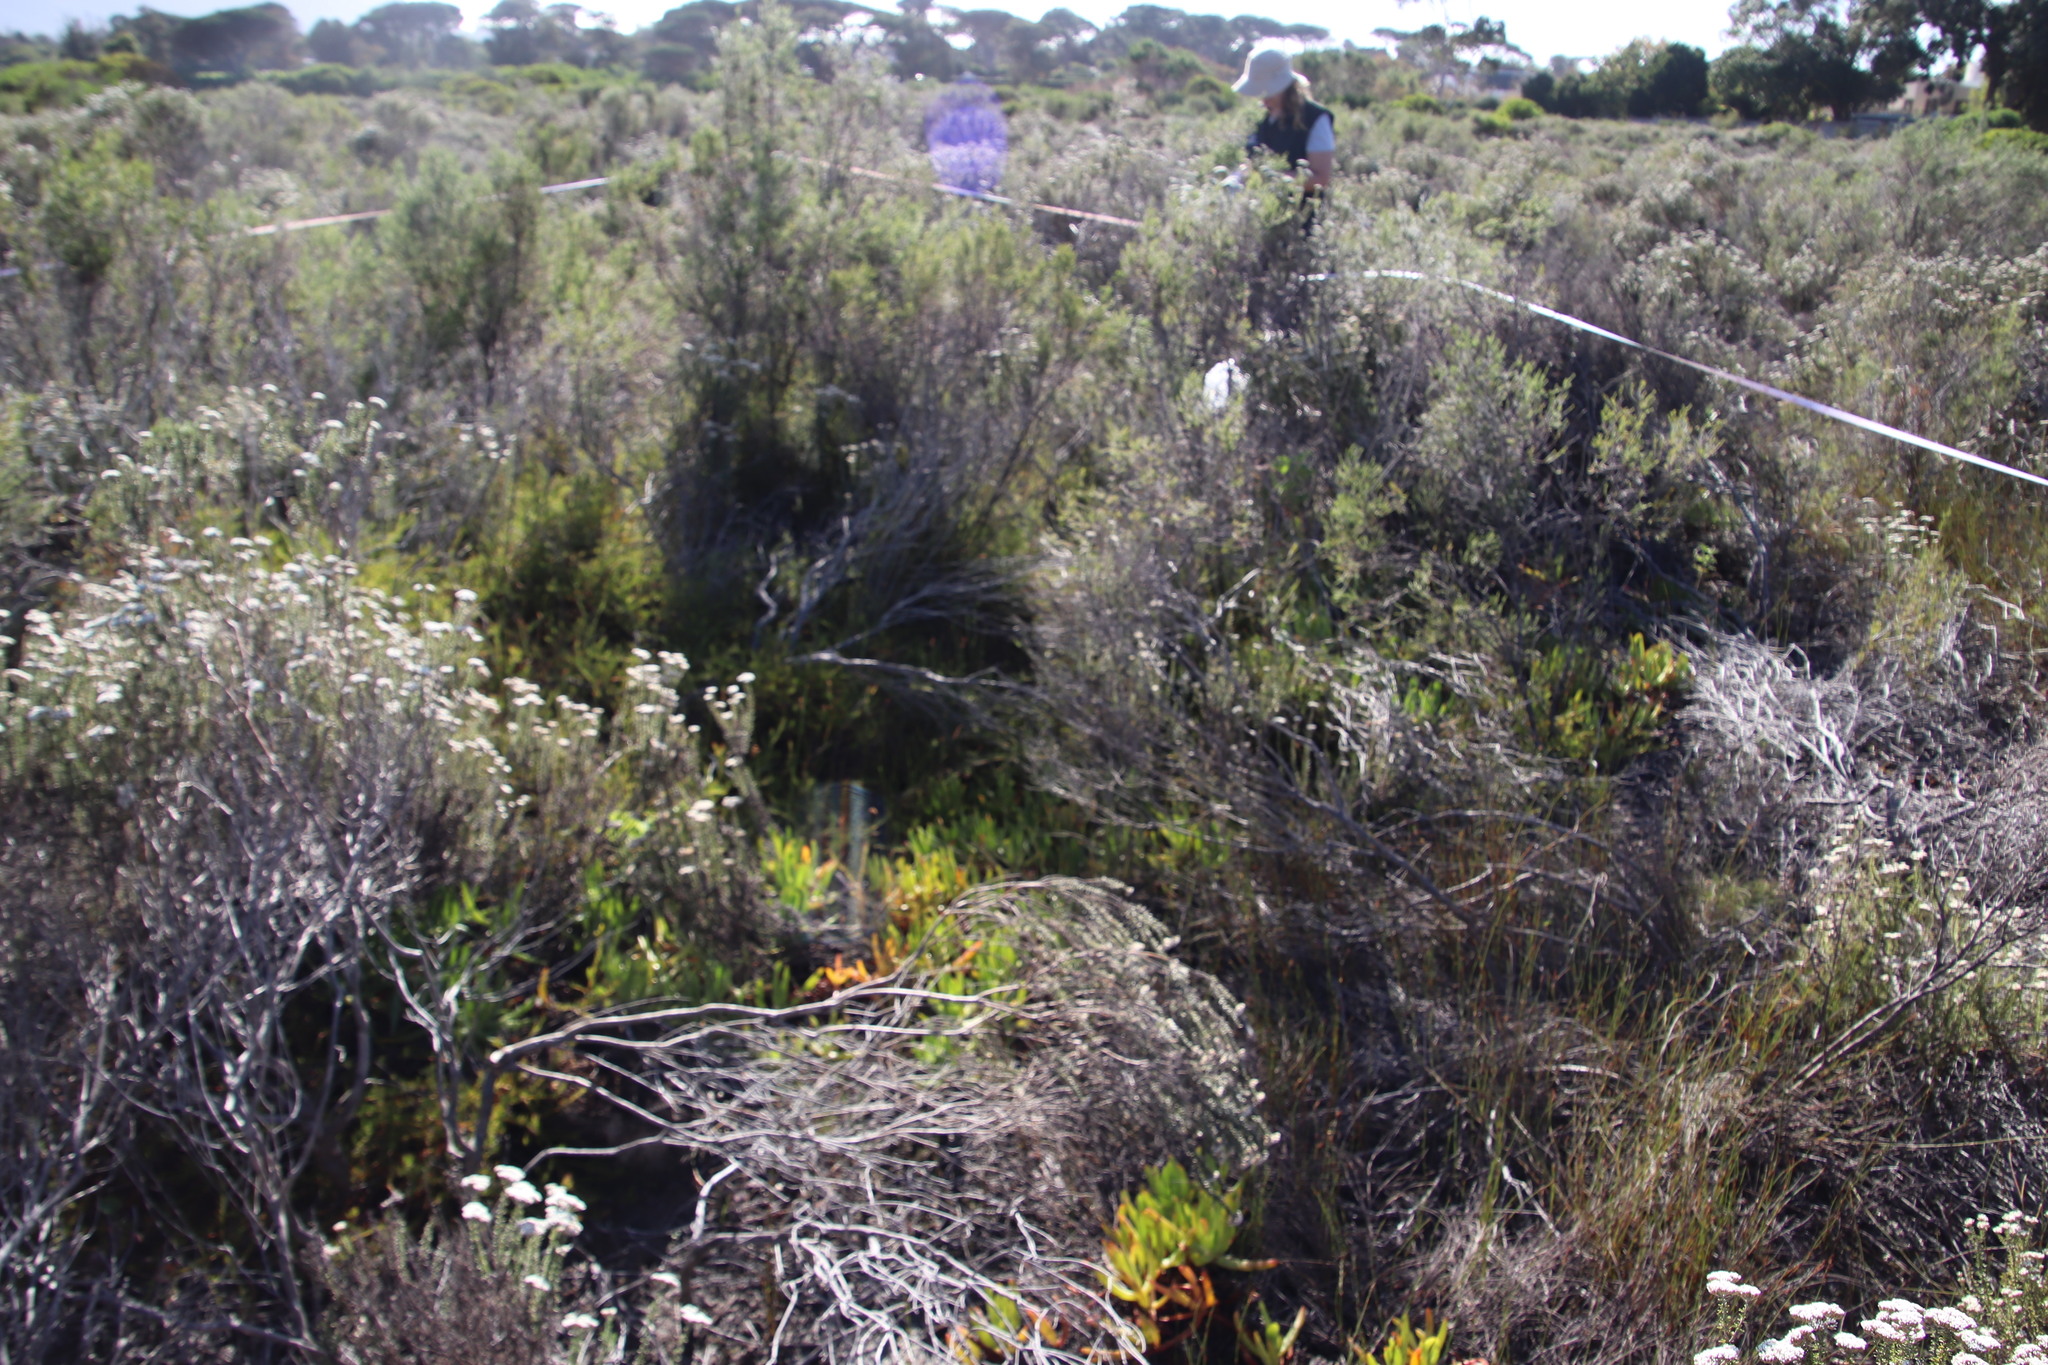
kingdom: Plantae
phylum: Tracheophyta
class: Magnoliopsida
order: Caryophyllales
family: Aizoaceae
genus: Carpobrotus
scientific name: Carpobrotus edulis
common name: Hottentot-fig
